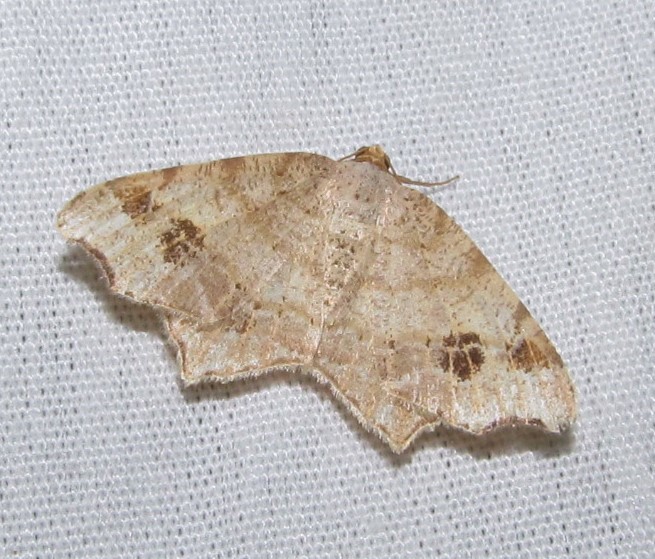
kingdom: Animalia
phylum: Arthropoda
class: Insecta
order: Lepidoptera
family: Geometridae
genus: Macaria
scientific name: Macaria aemulataria
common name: Common angle
